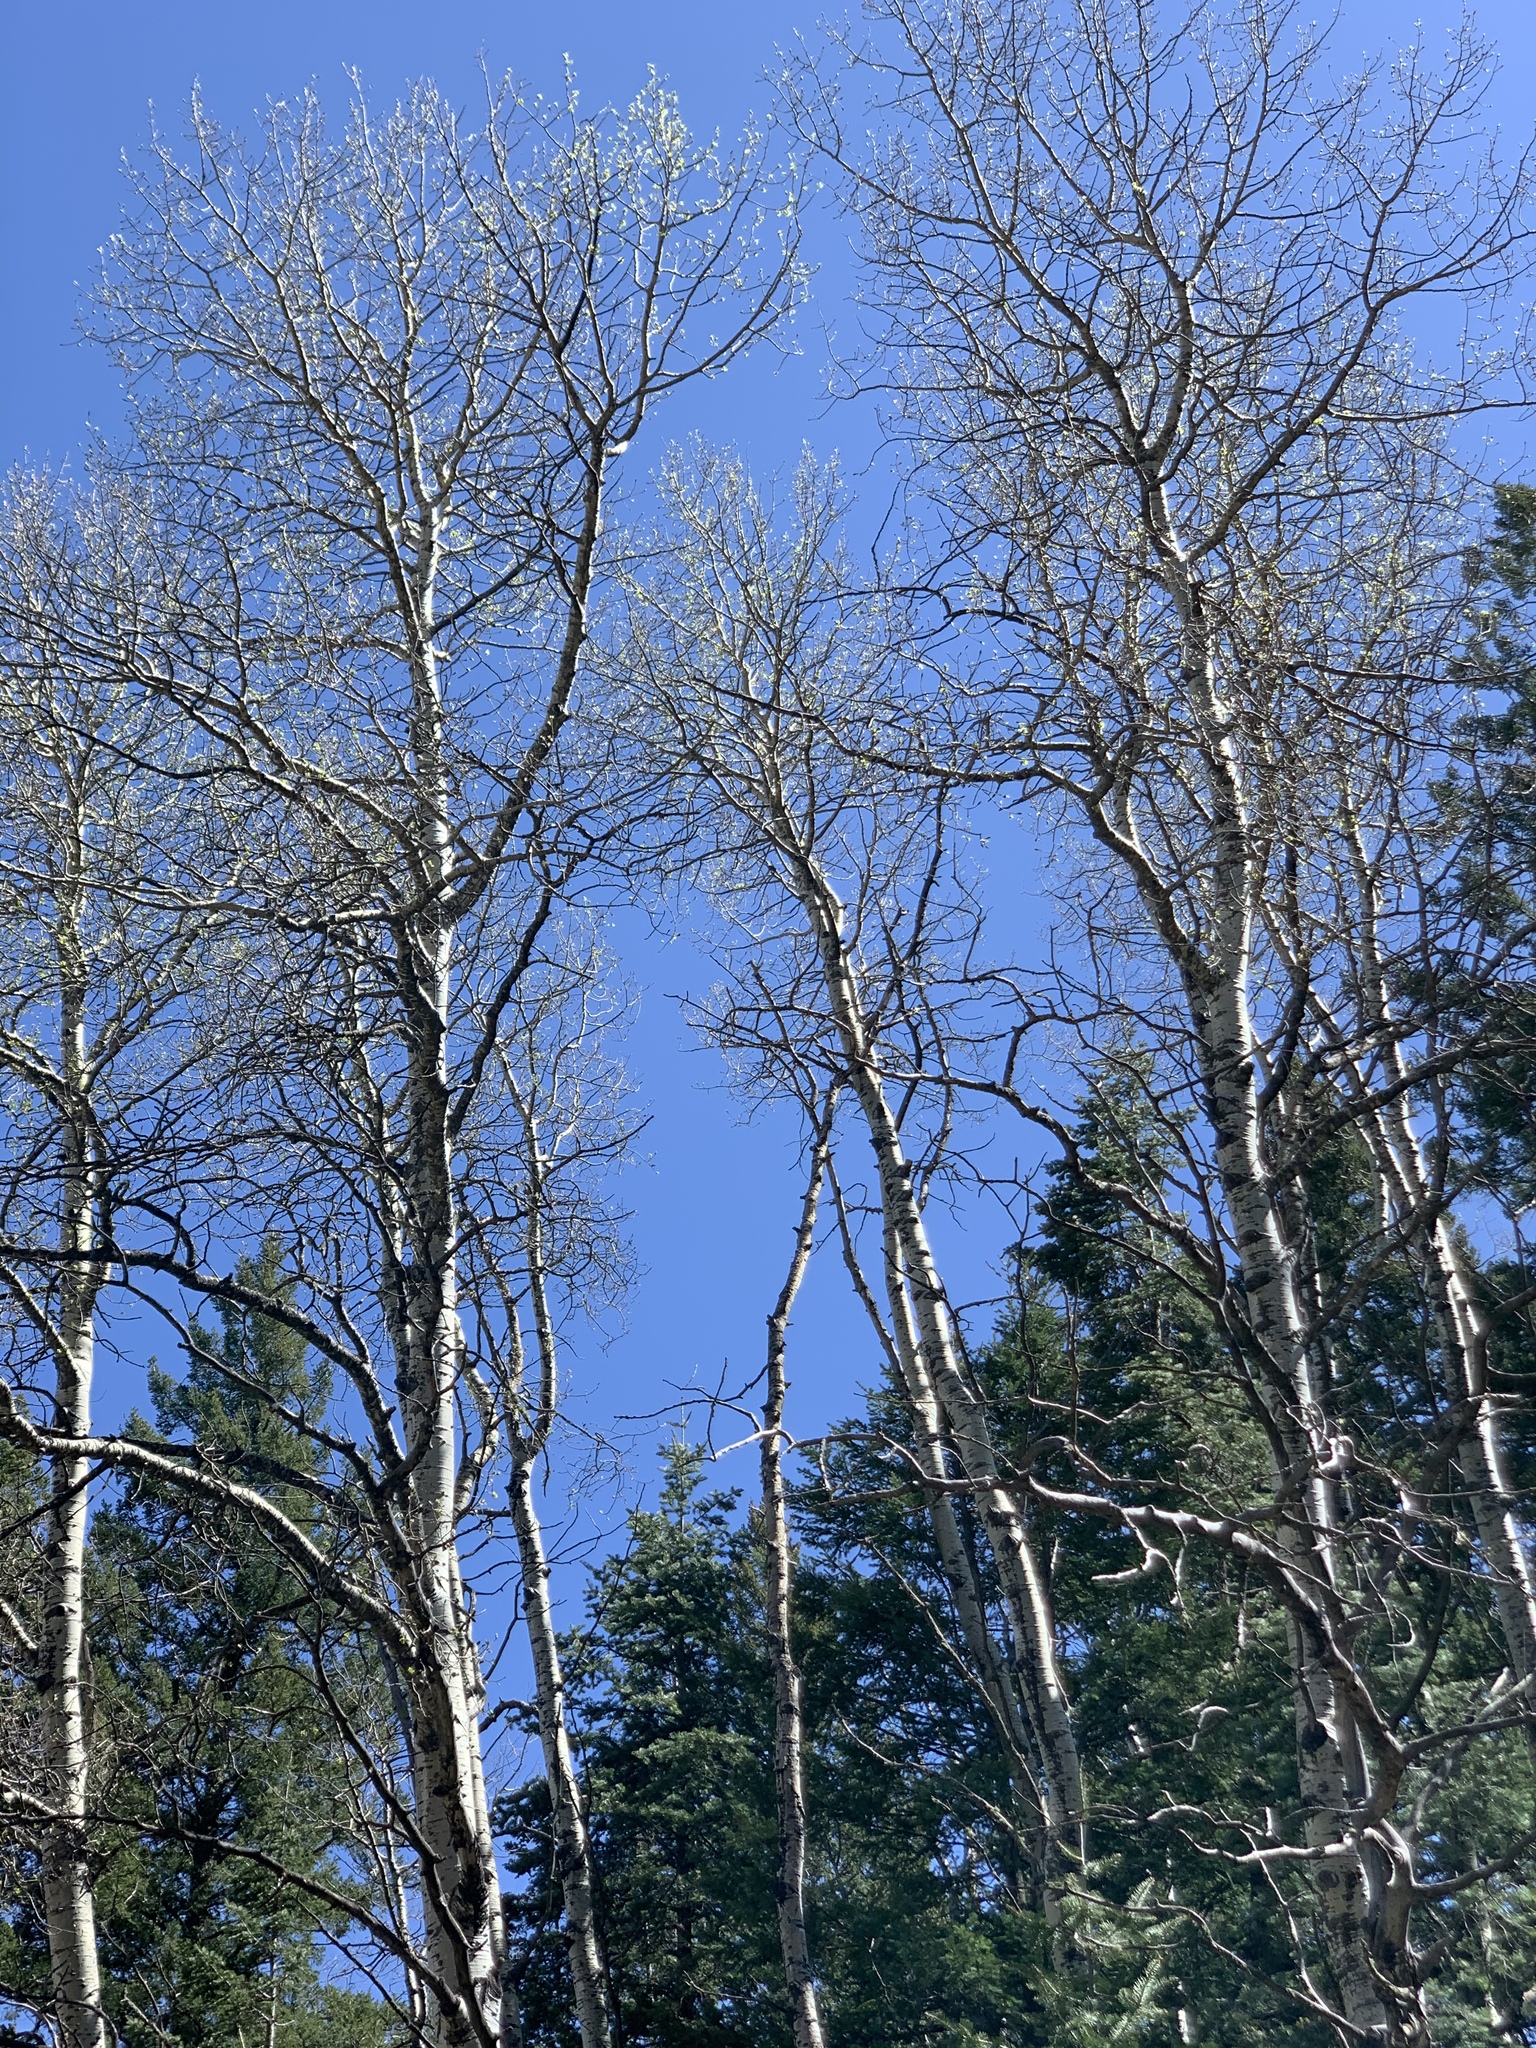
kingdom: Plantae
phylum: Tracheophyta
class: Magnoliopsida
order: Malpighiales
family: Salicaceae
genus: Populus
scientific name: Populus tremuloides
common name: Quaking aspen
